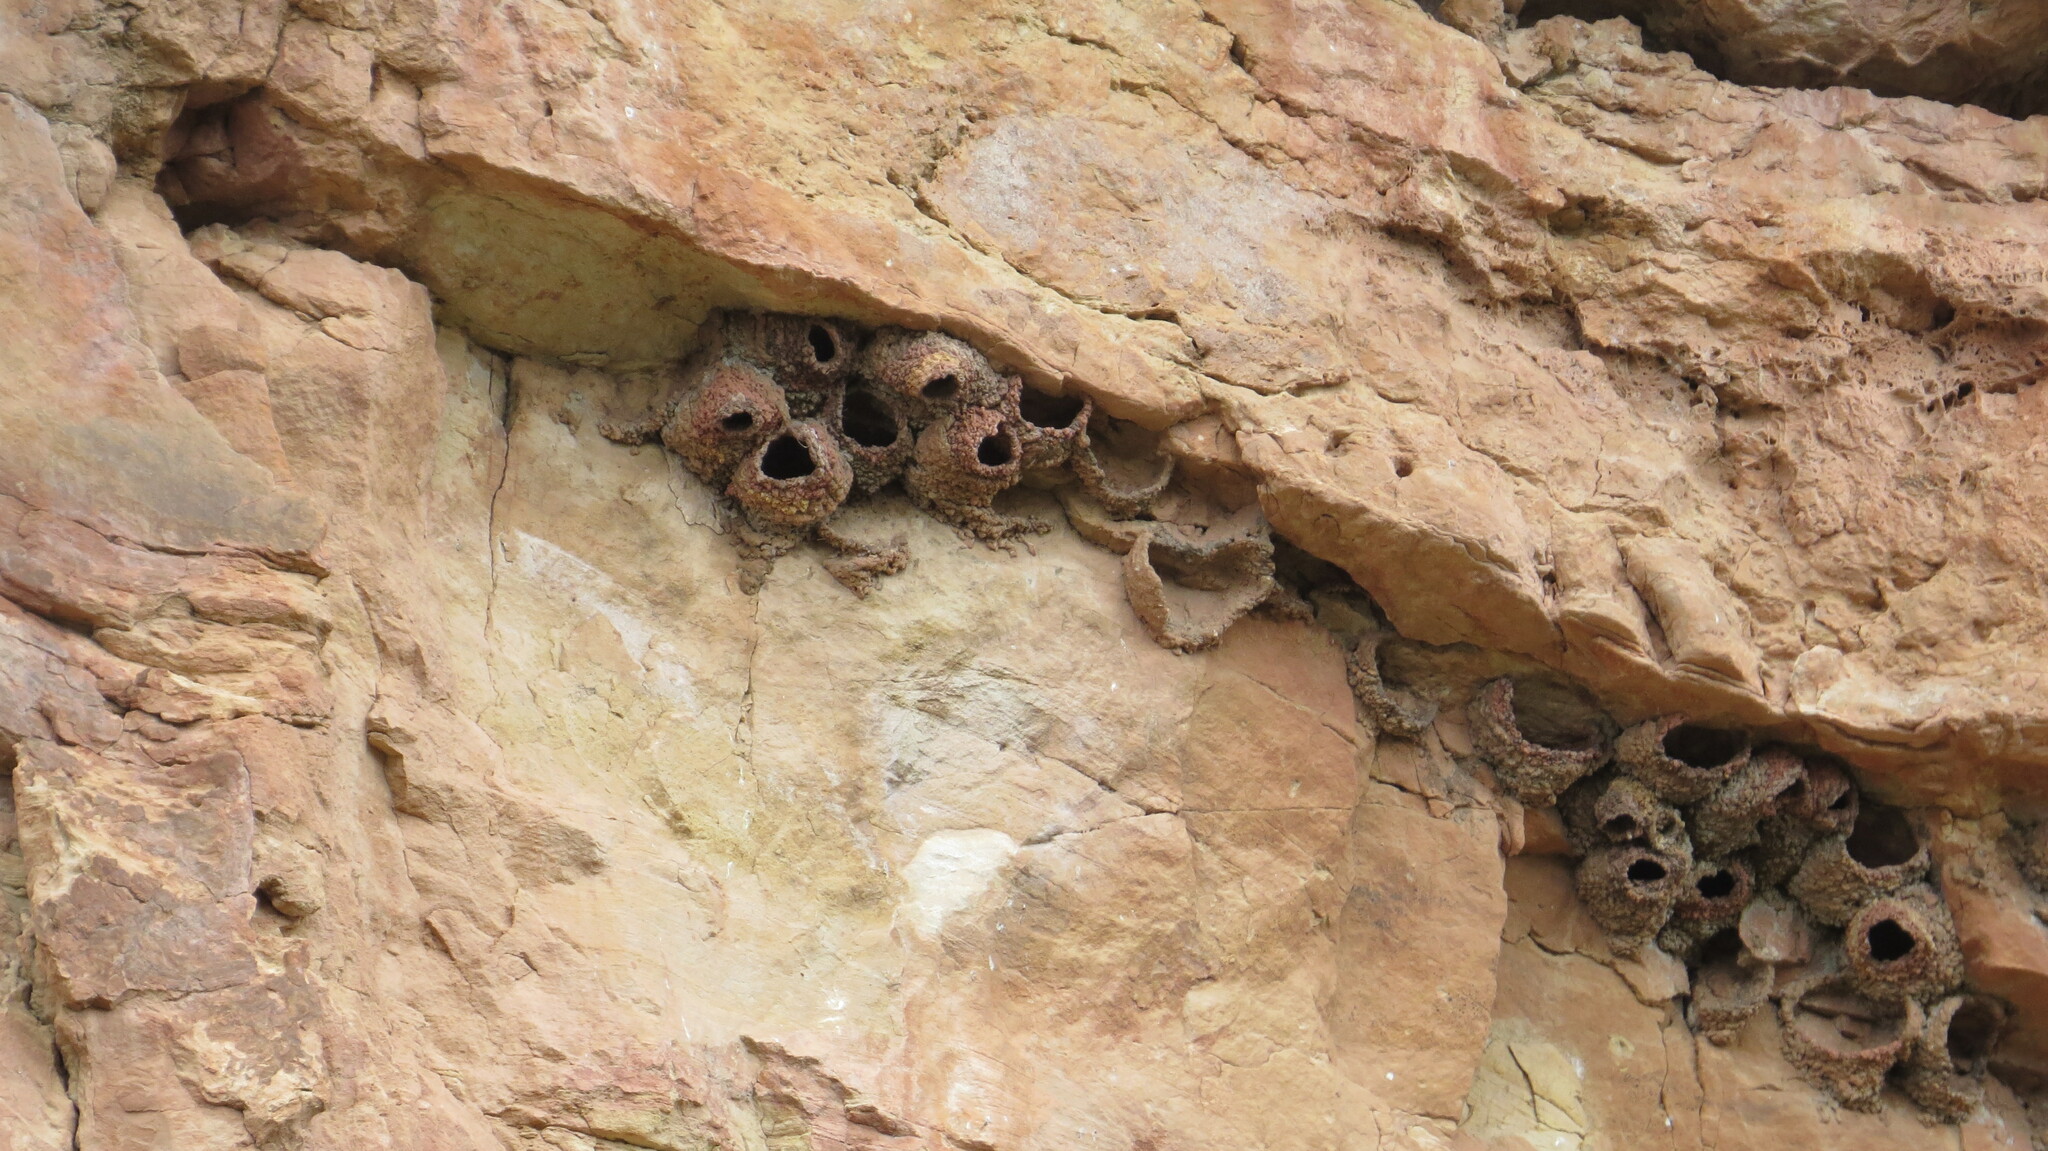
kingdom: Animalia
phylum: Chordata
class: Aves
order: Passeriformes
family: Hirundinidae
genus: Petrochelidon
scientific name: Petrochelidon pyrrhonota
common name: American cliff swallow
